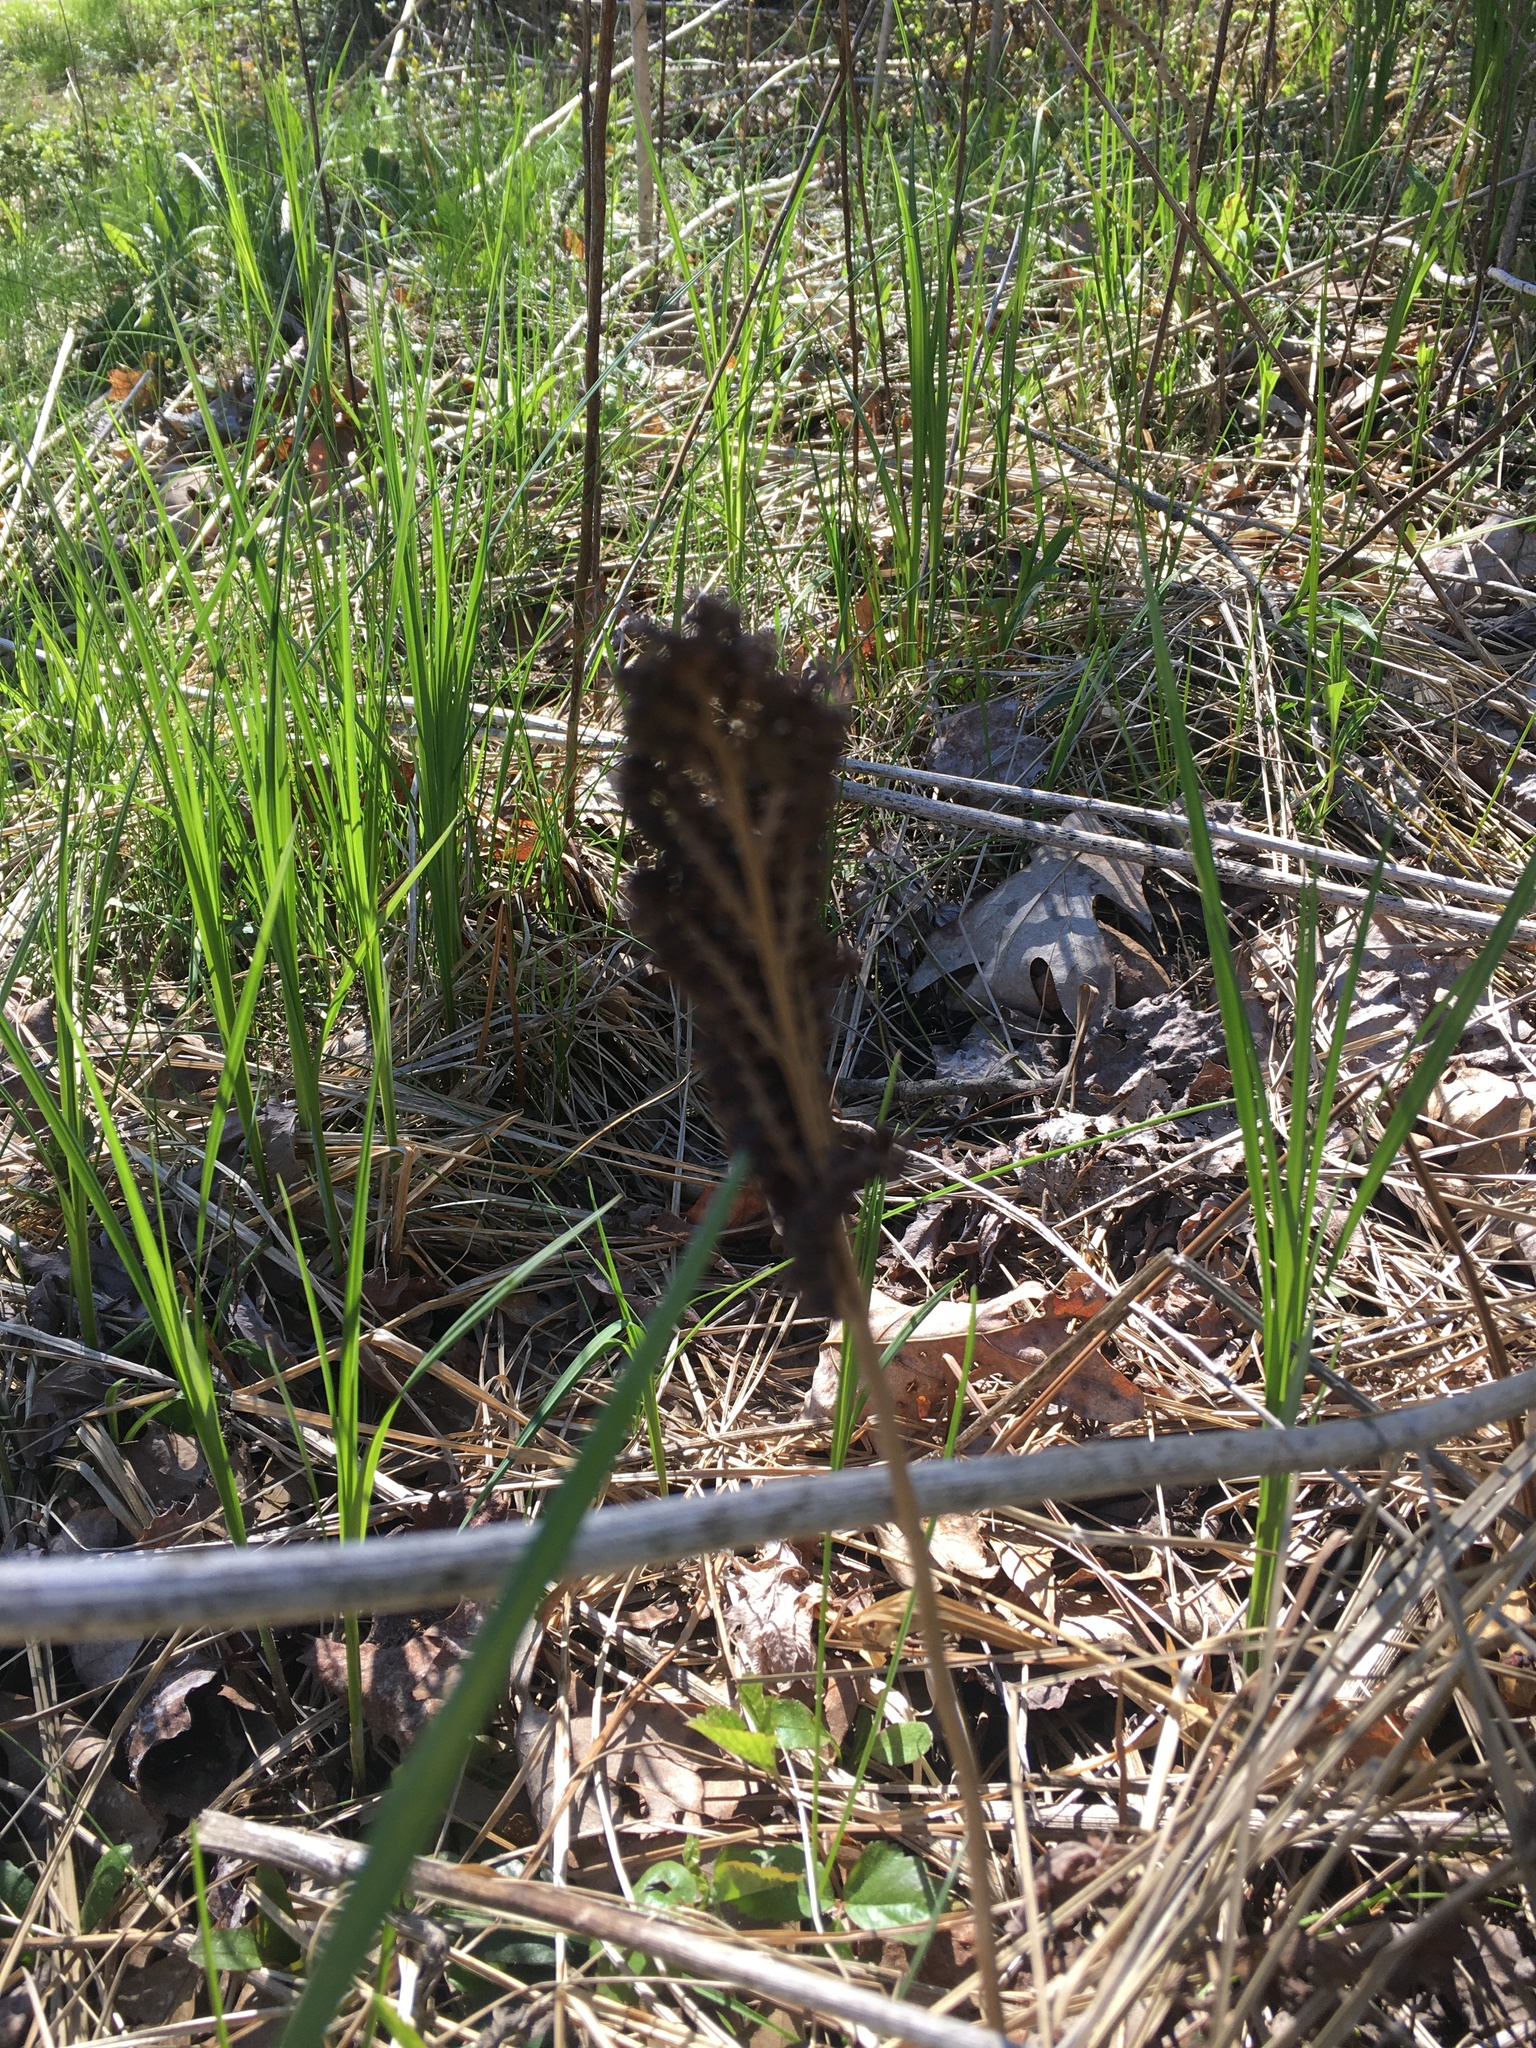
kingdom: Plantae
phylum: Tracheophyta
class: Polypodiopsida
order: Polypodiales
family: Onocleaceae
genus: Onoclea
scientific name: Onoclea sensibilis
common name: Sensitive fern
